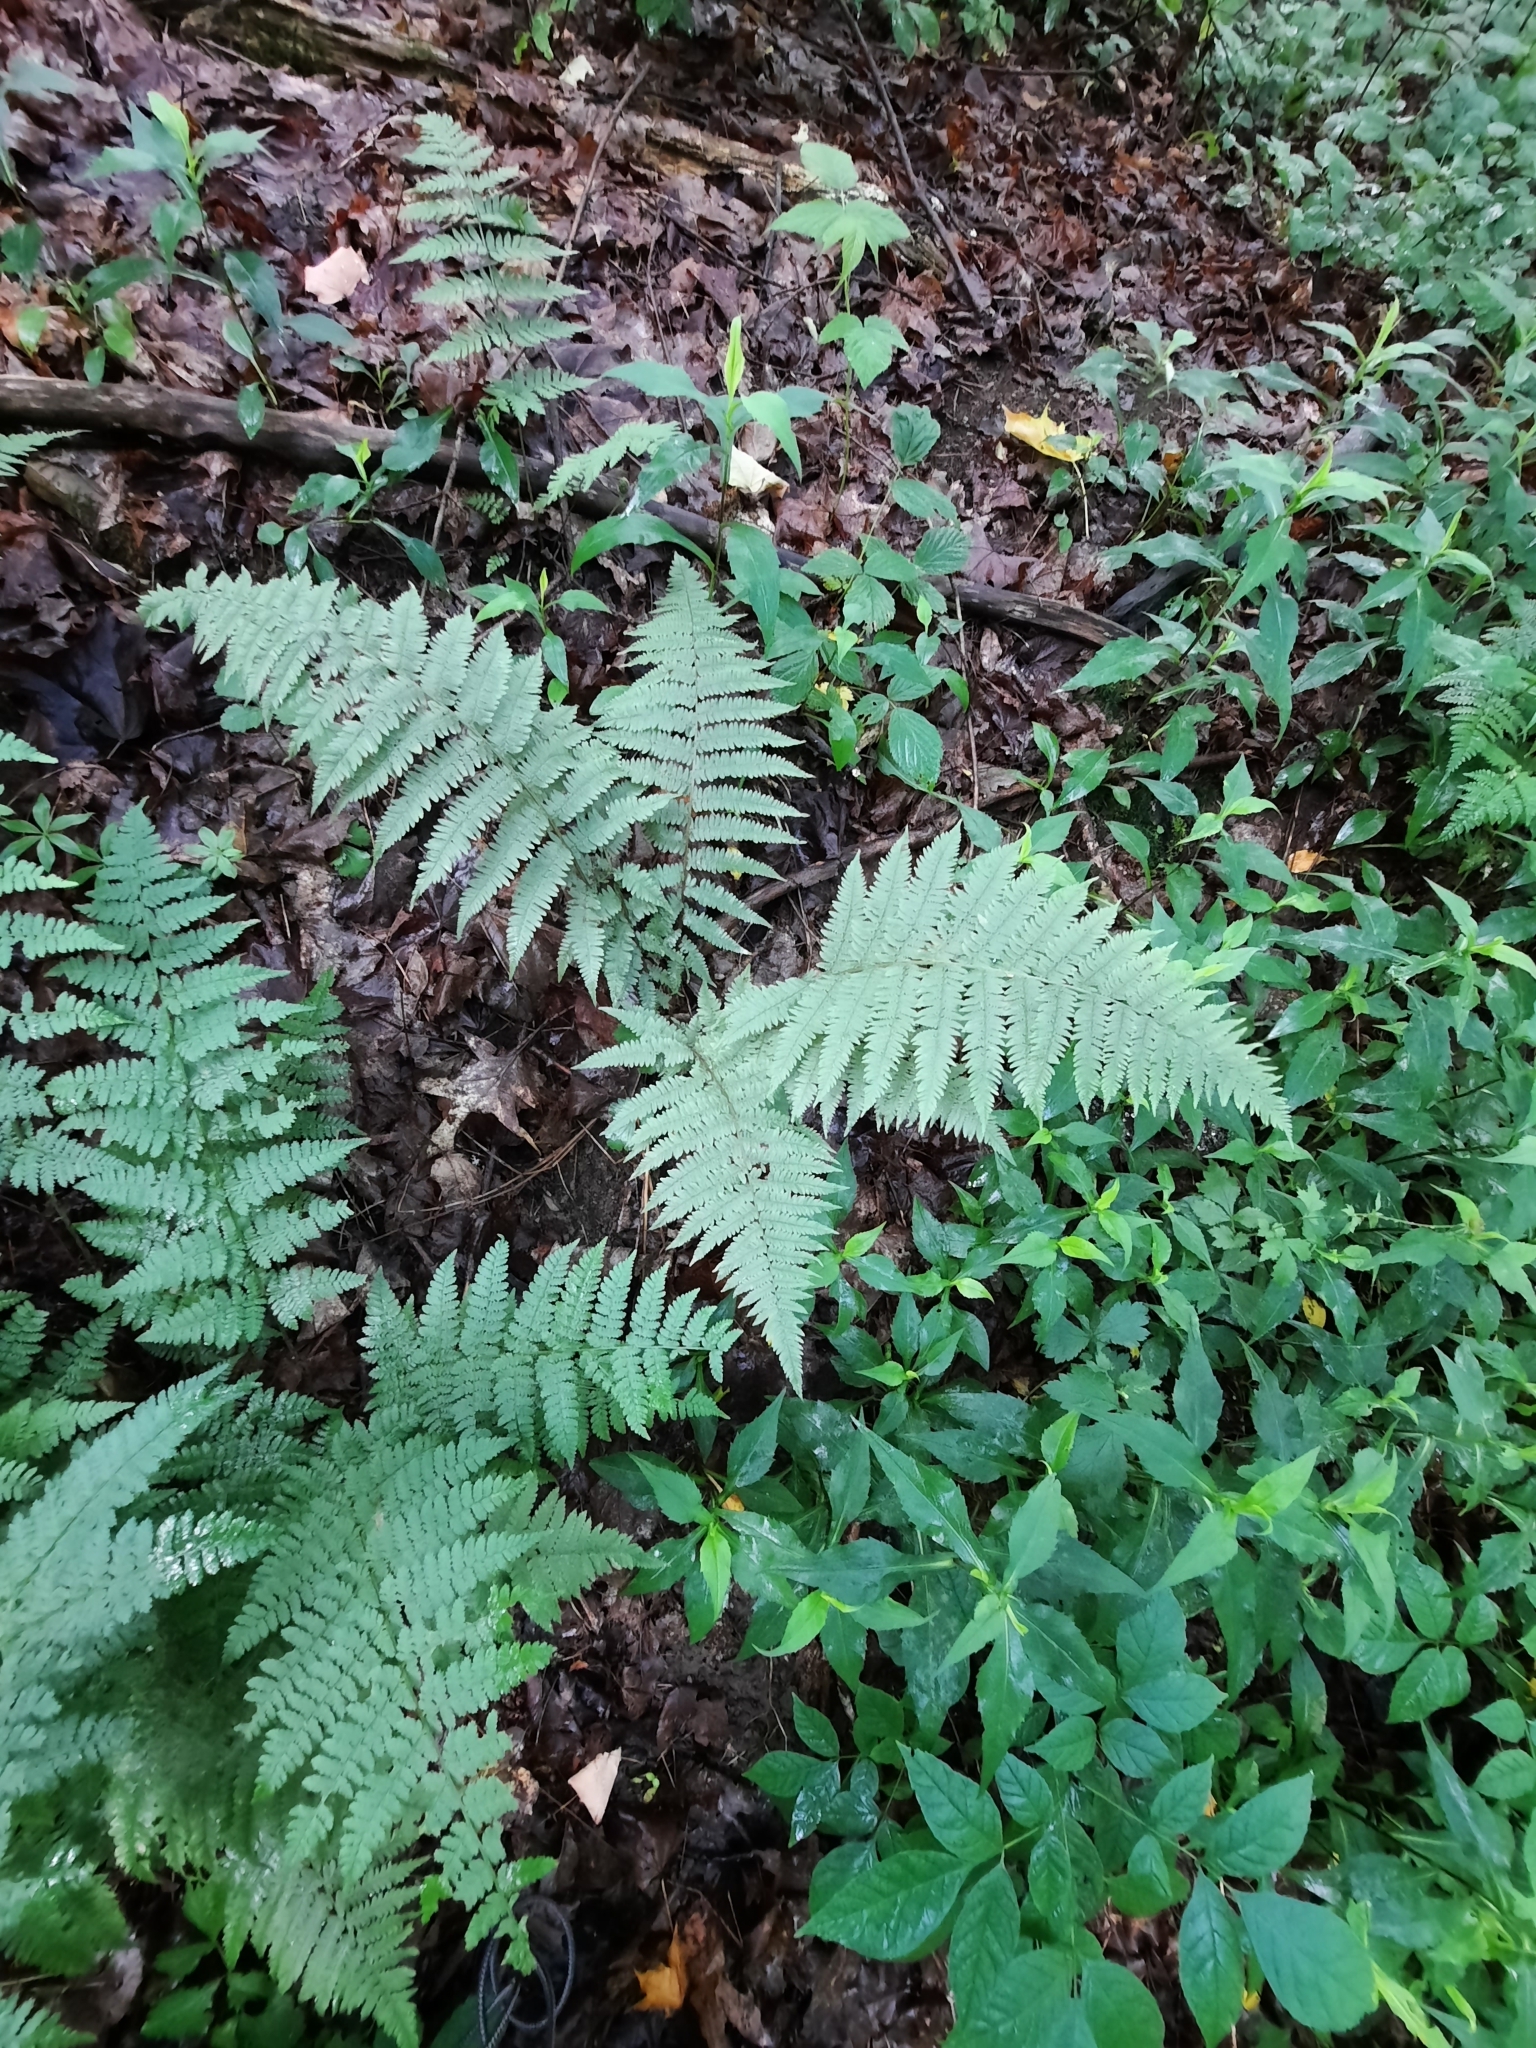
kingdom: Plantae
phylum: Tracheophyta
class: Polypodiopsida
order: Polypodiales
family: Thelypteridaceae
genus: Amauropelta
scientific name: Amauropelta noveboracensis
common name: New york fern
